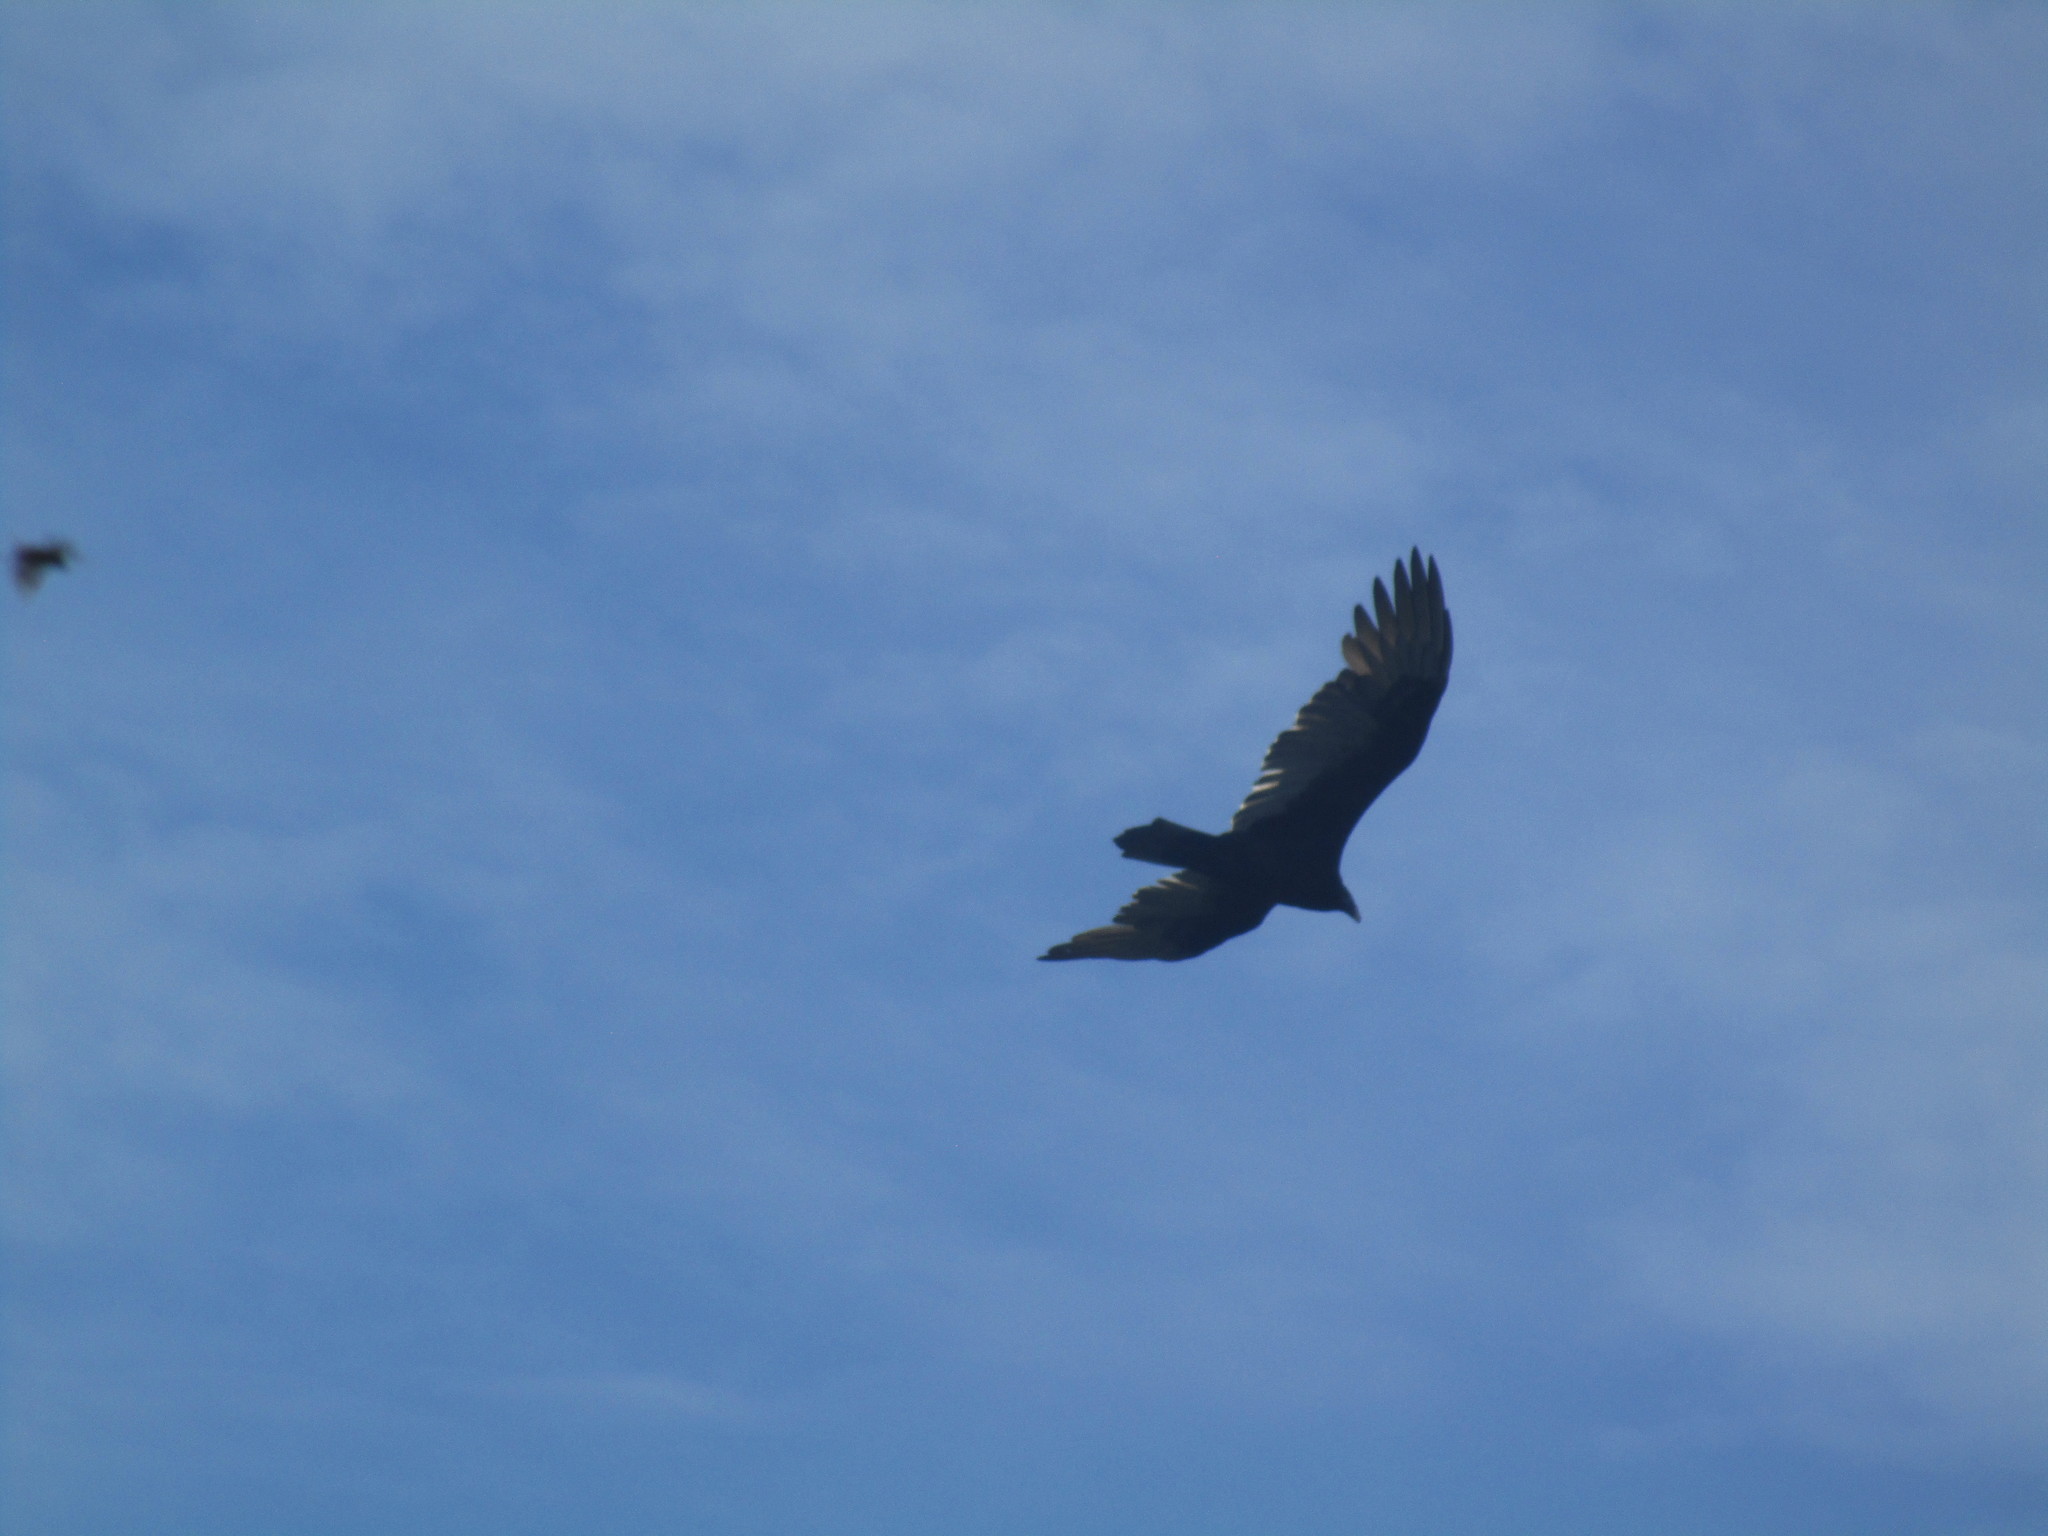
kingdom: Animalia
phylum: Chordata
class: Aves
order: Accipitriformes
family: Cathartidae
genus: Cathartes
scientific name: Cathartes aura
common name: Turkey vulture
